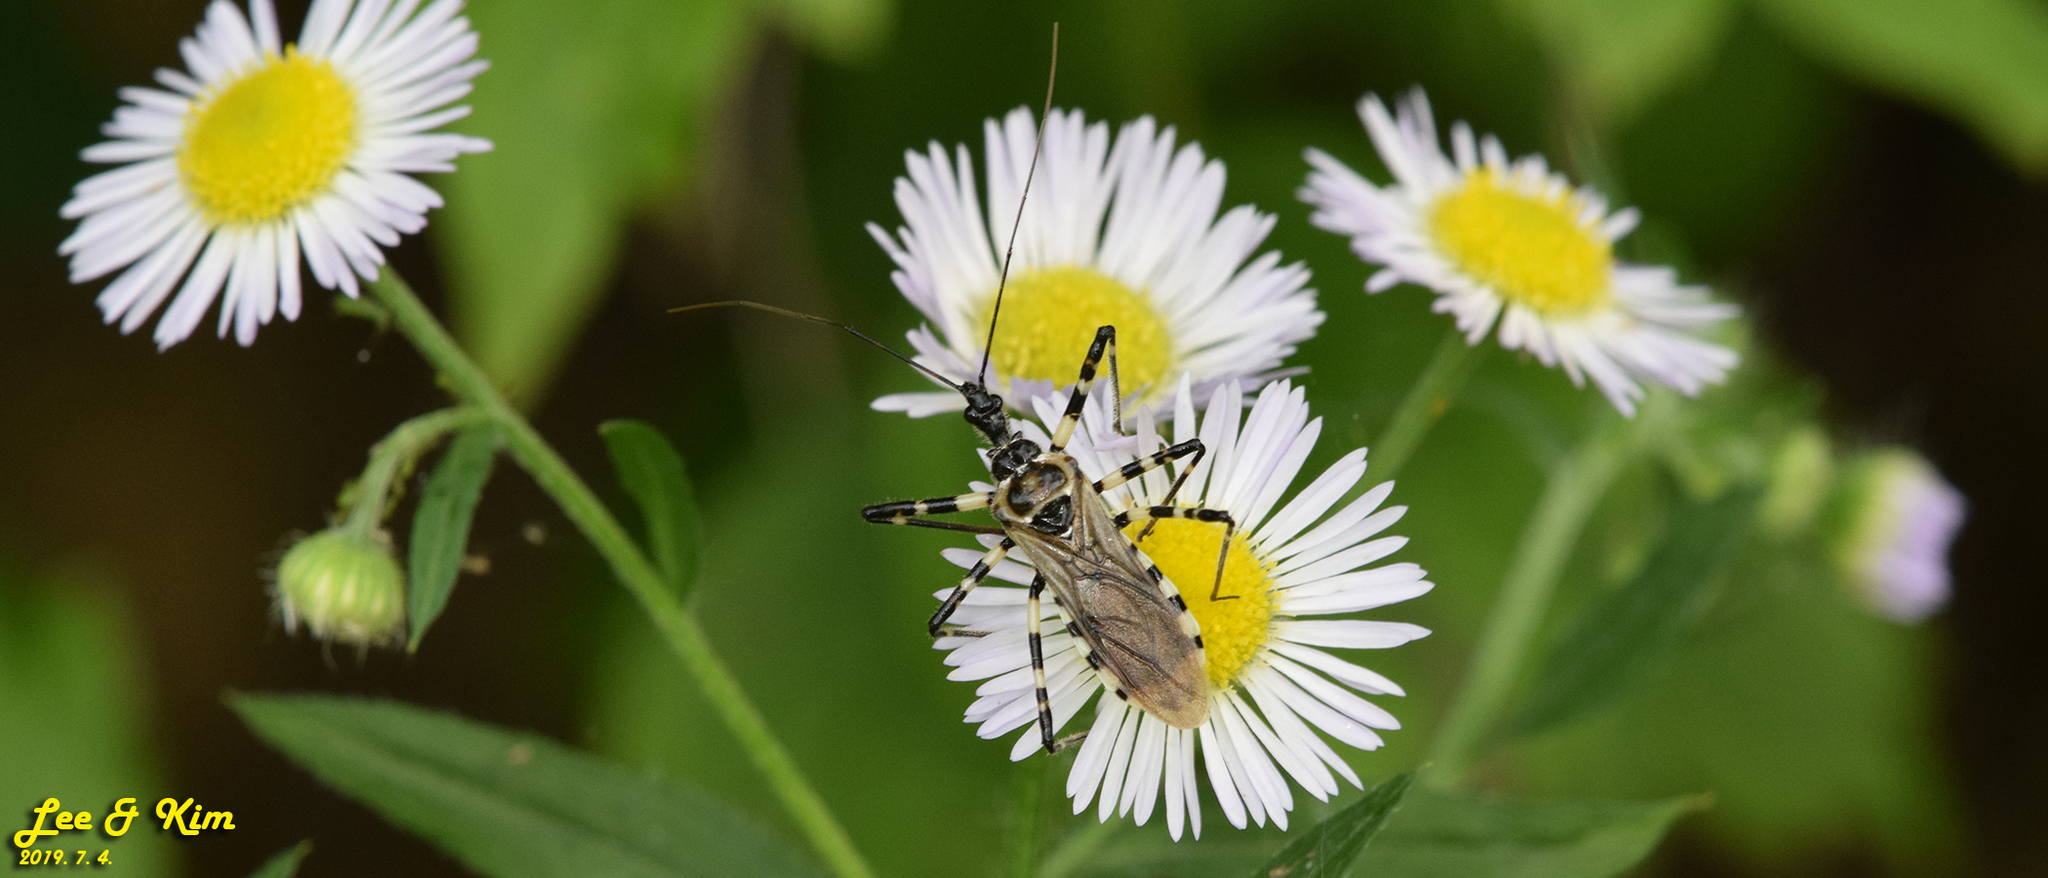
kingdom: Animalia
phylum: Arthropoda
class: Insecta
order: Hemiptera
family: Reduviidae
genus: Sphedanolestes
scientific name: Sphedanolestes impressicollis
